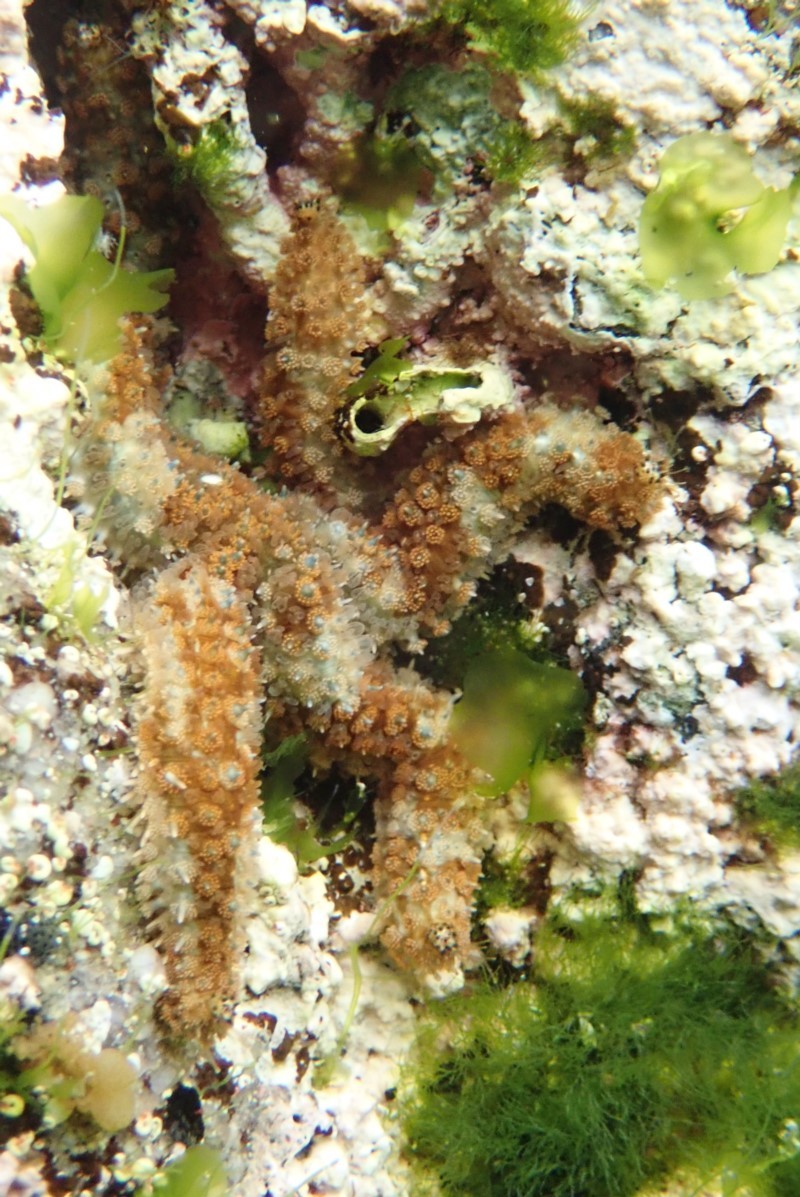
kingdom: Animalia
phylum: Echinodermata
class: Asteroidea
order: Forcipulatida
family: Asteriidae
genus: Coscinasterias
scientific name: Coscinasterias muricata
